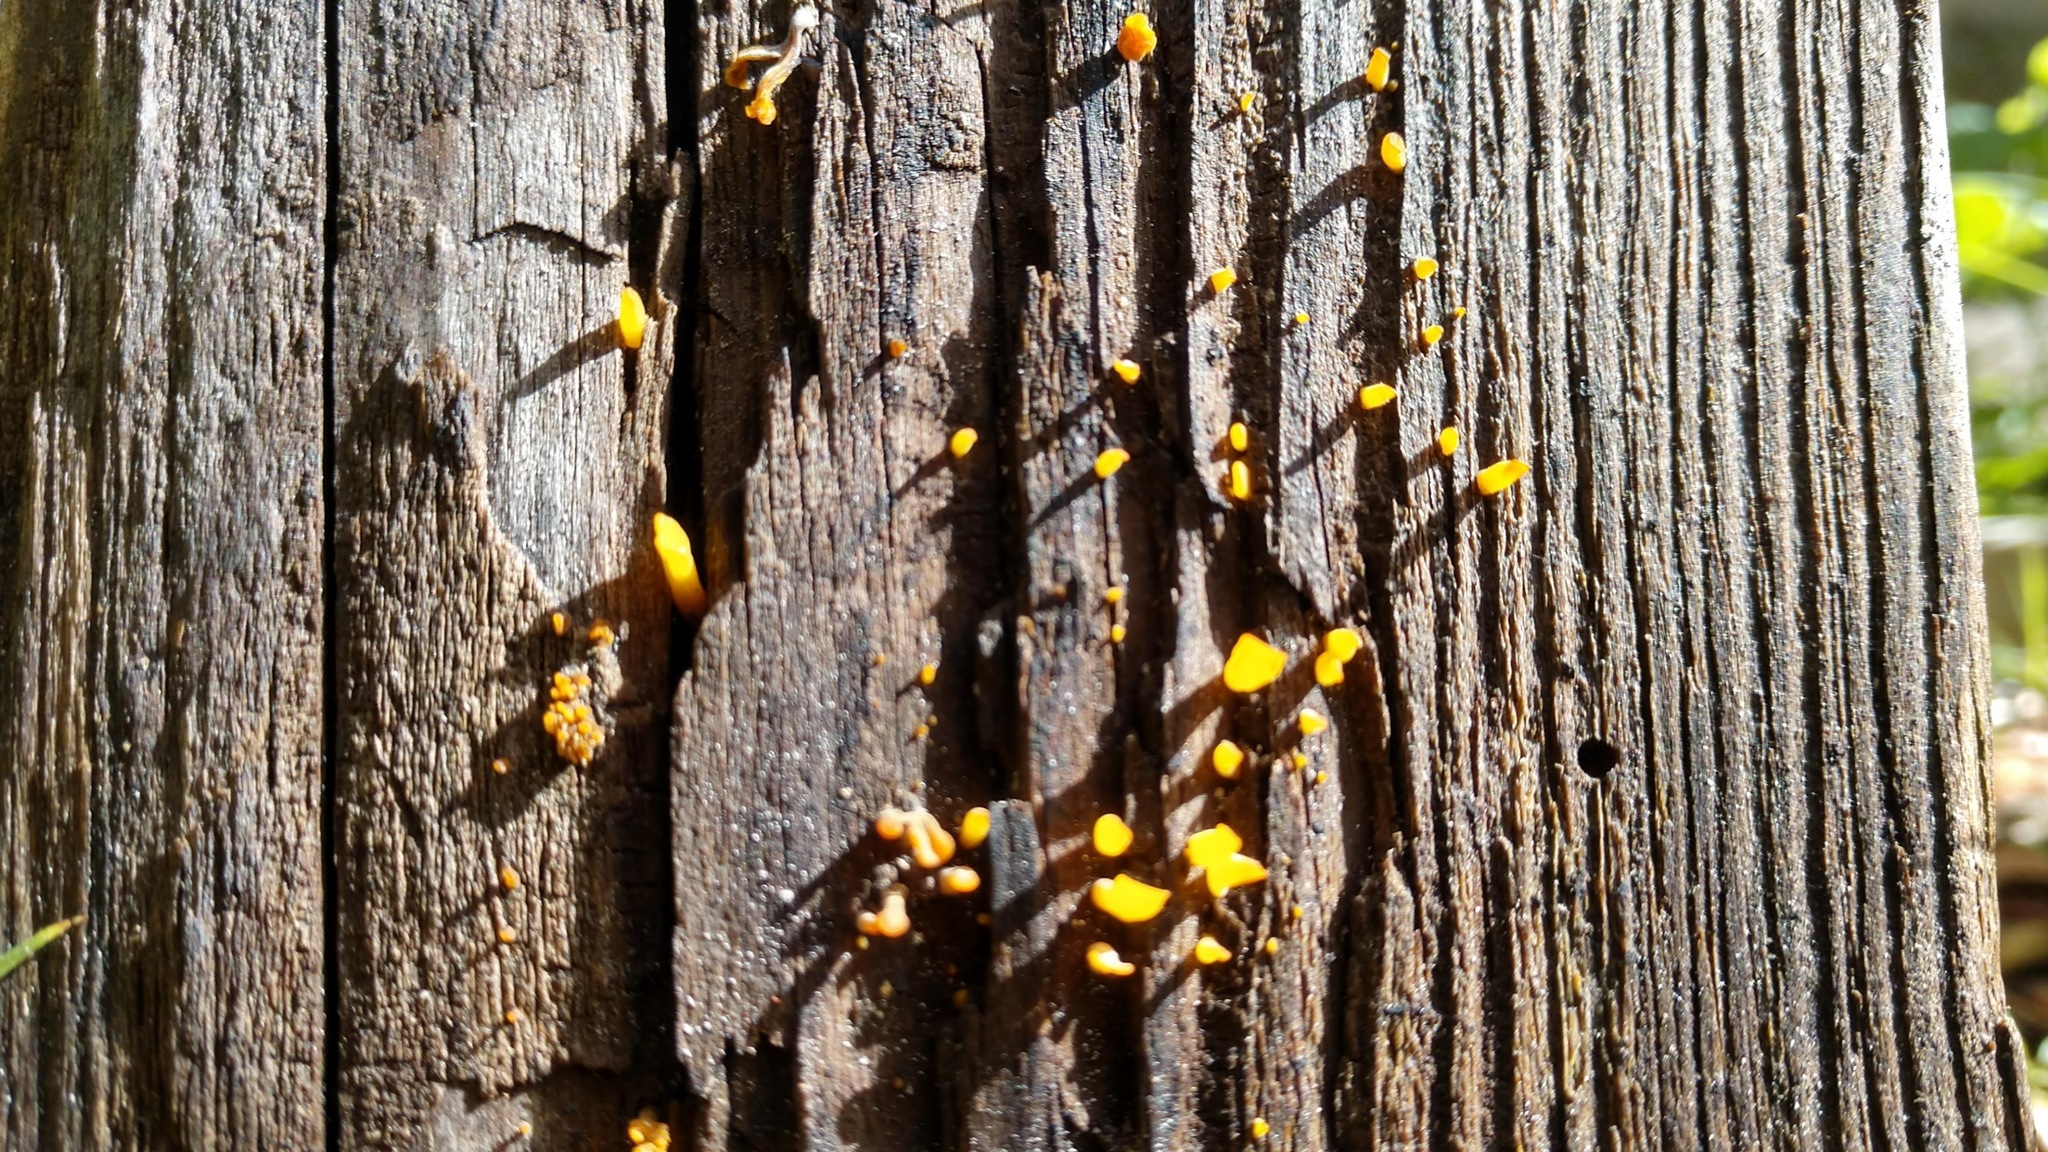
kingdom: Fungi
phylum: Basidiomycota
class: Dacrymycetes
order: Dacrymycetales
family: Dacrymycetaceae
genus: Dacrymyces
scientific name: Dacrymyces spathularius
